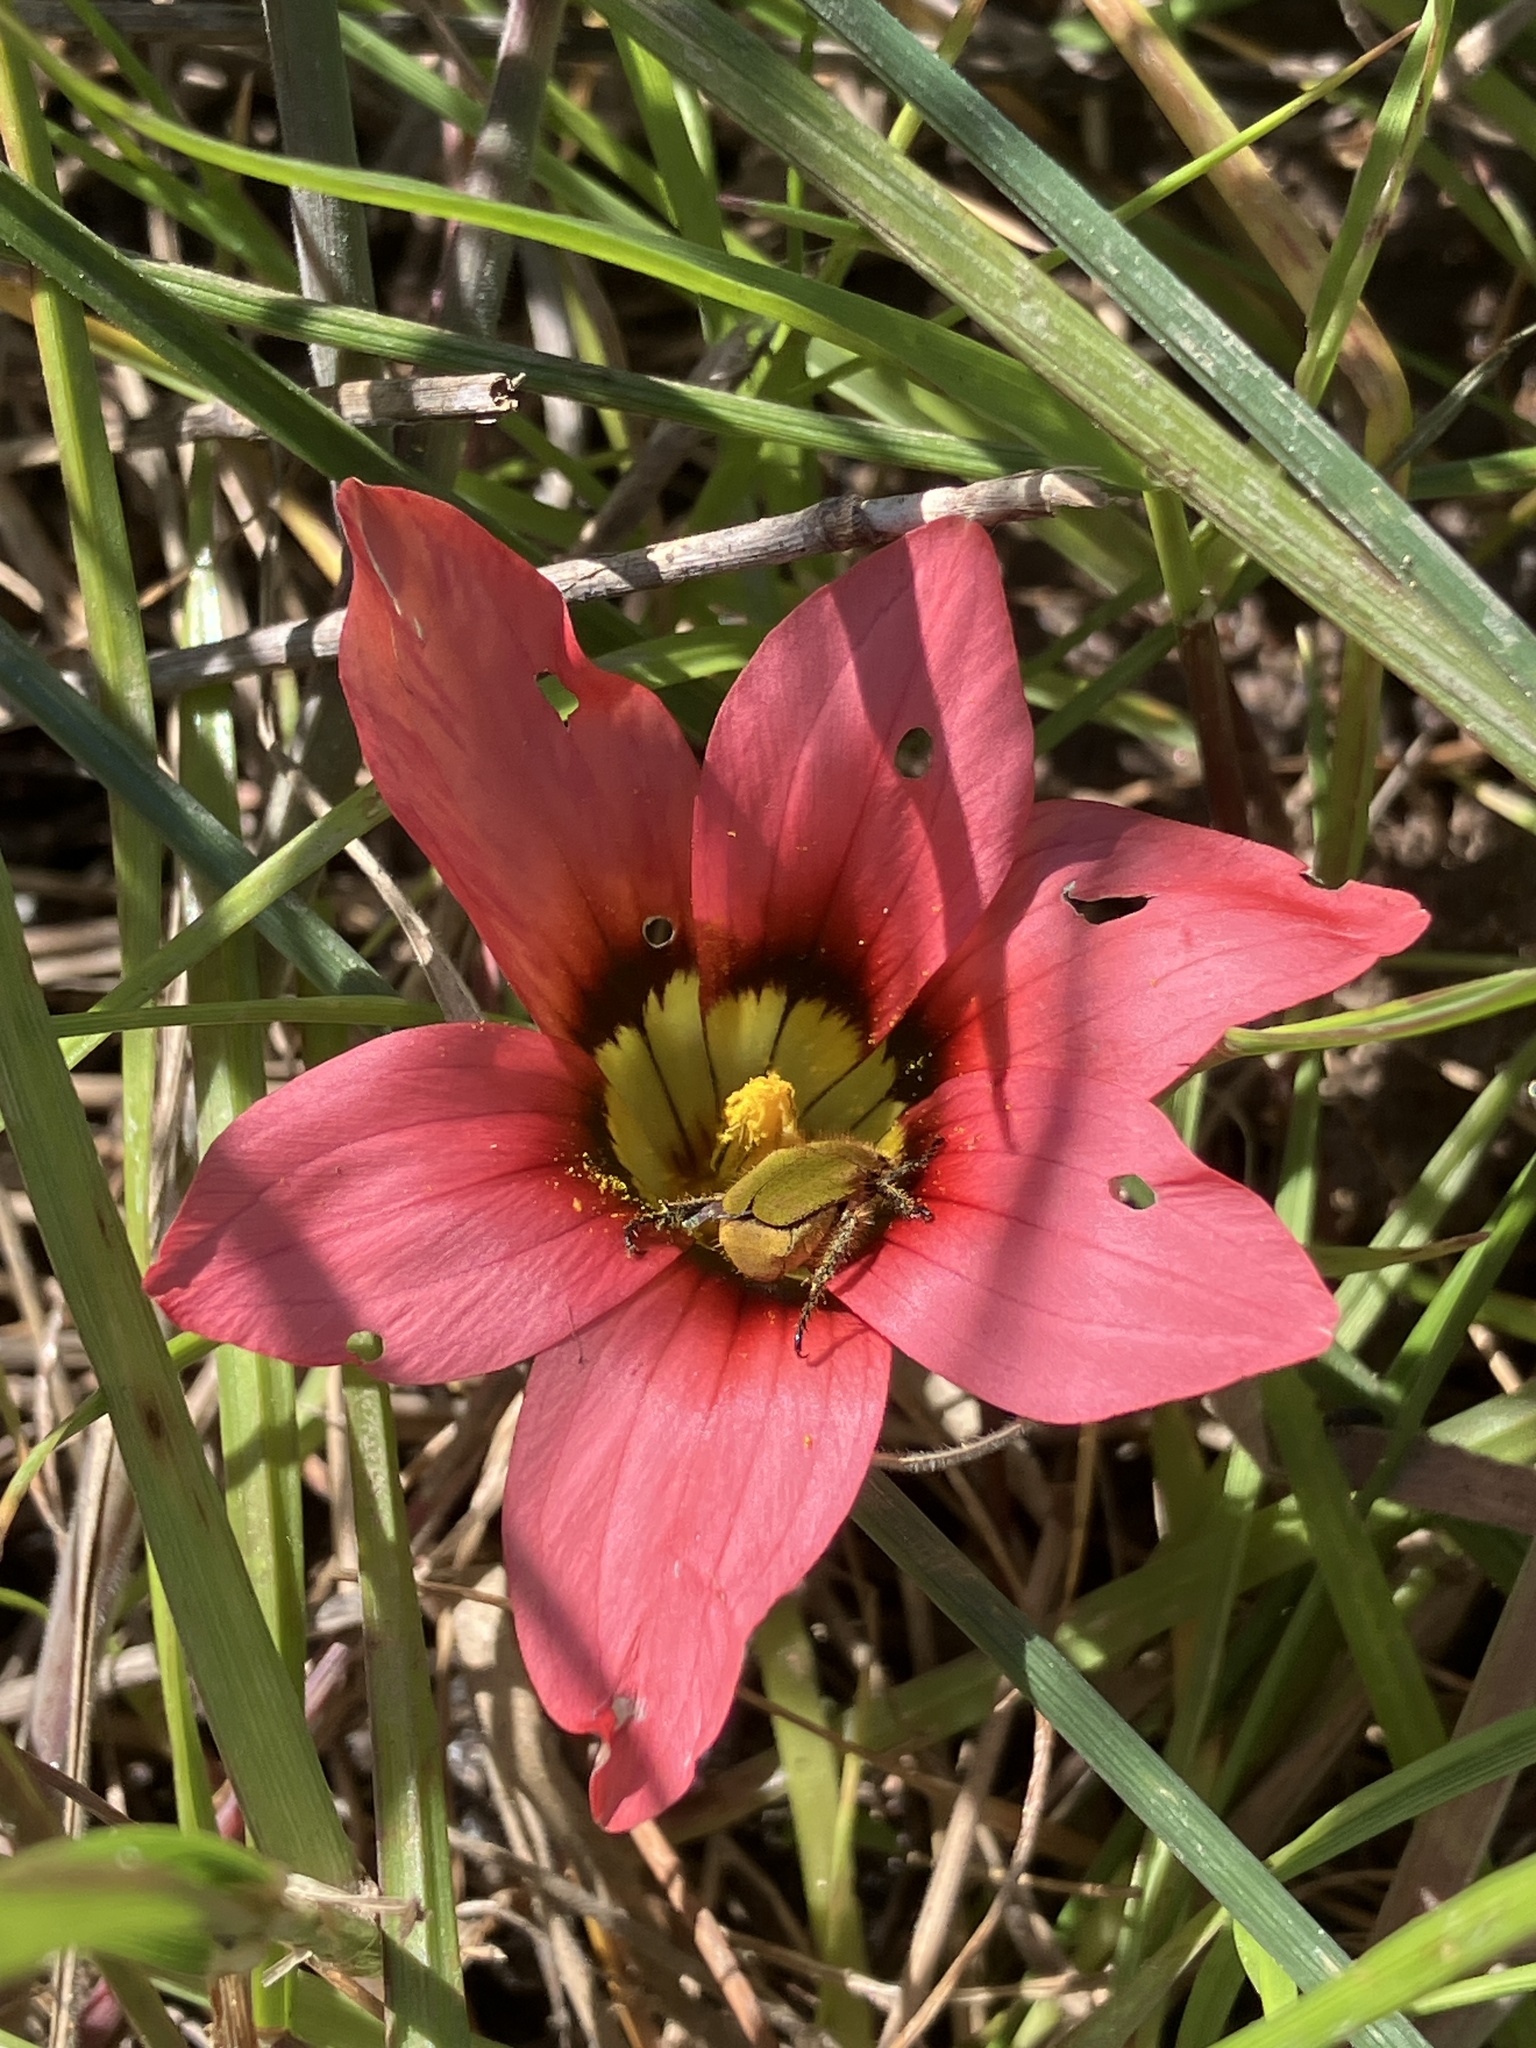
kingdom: Plantae
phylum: Tracheophyta
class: Liliopsida
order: Asparagales
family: Iridaceae
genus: Romulea
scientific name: Romulea eximia
